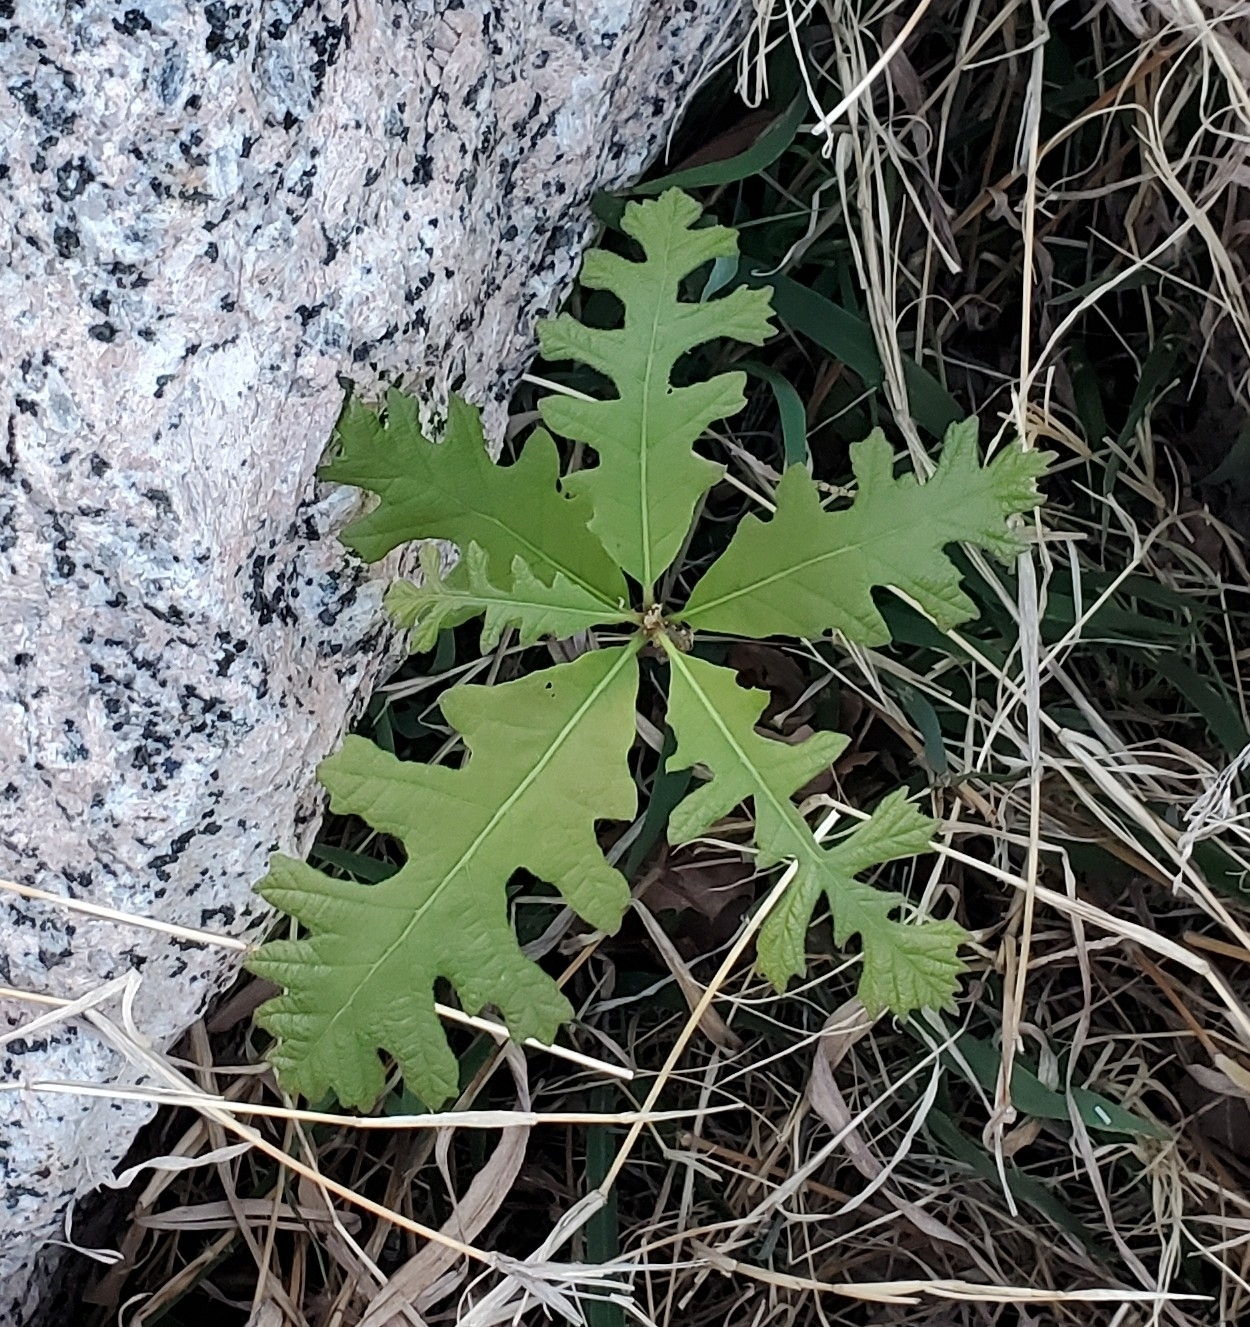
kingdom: Plantae
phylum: Tracheophyta
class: Magnoliopsida
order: Fagales
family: Fagaceae
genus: Quercus
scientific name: Quercus macrocarpa
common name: Bur oak
